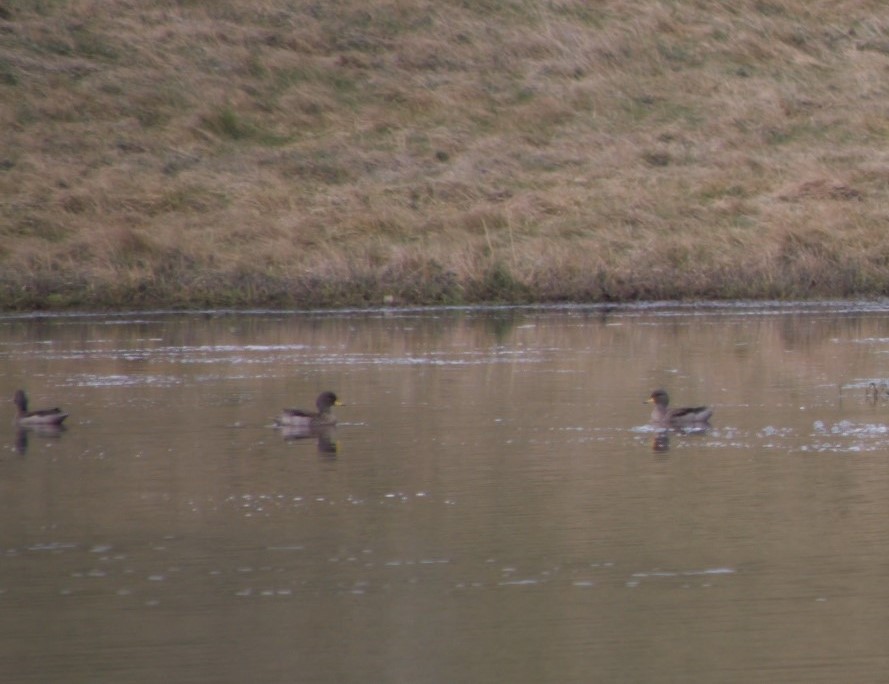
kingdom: Animalia
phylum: Chordata
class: Aves
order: Anseriformes
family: Anatidae
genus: Anas
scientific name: Anas flavirostris
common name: Yellow-billed teal
